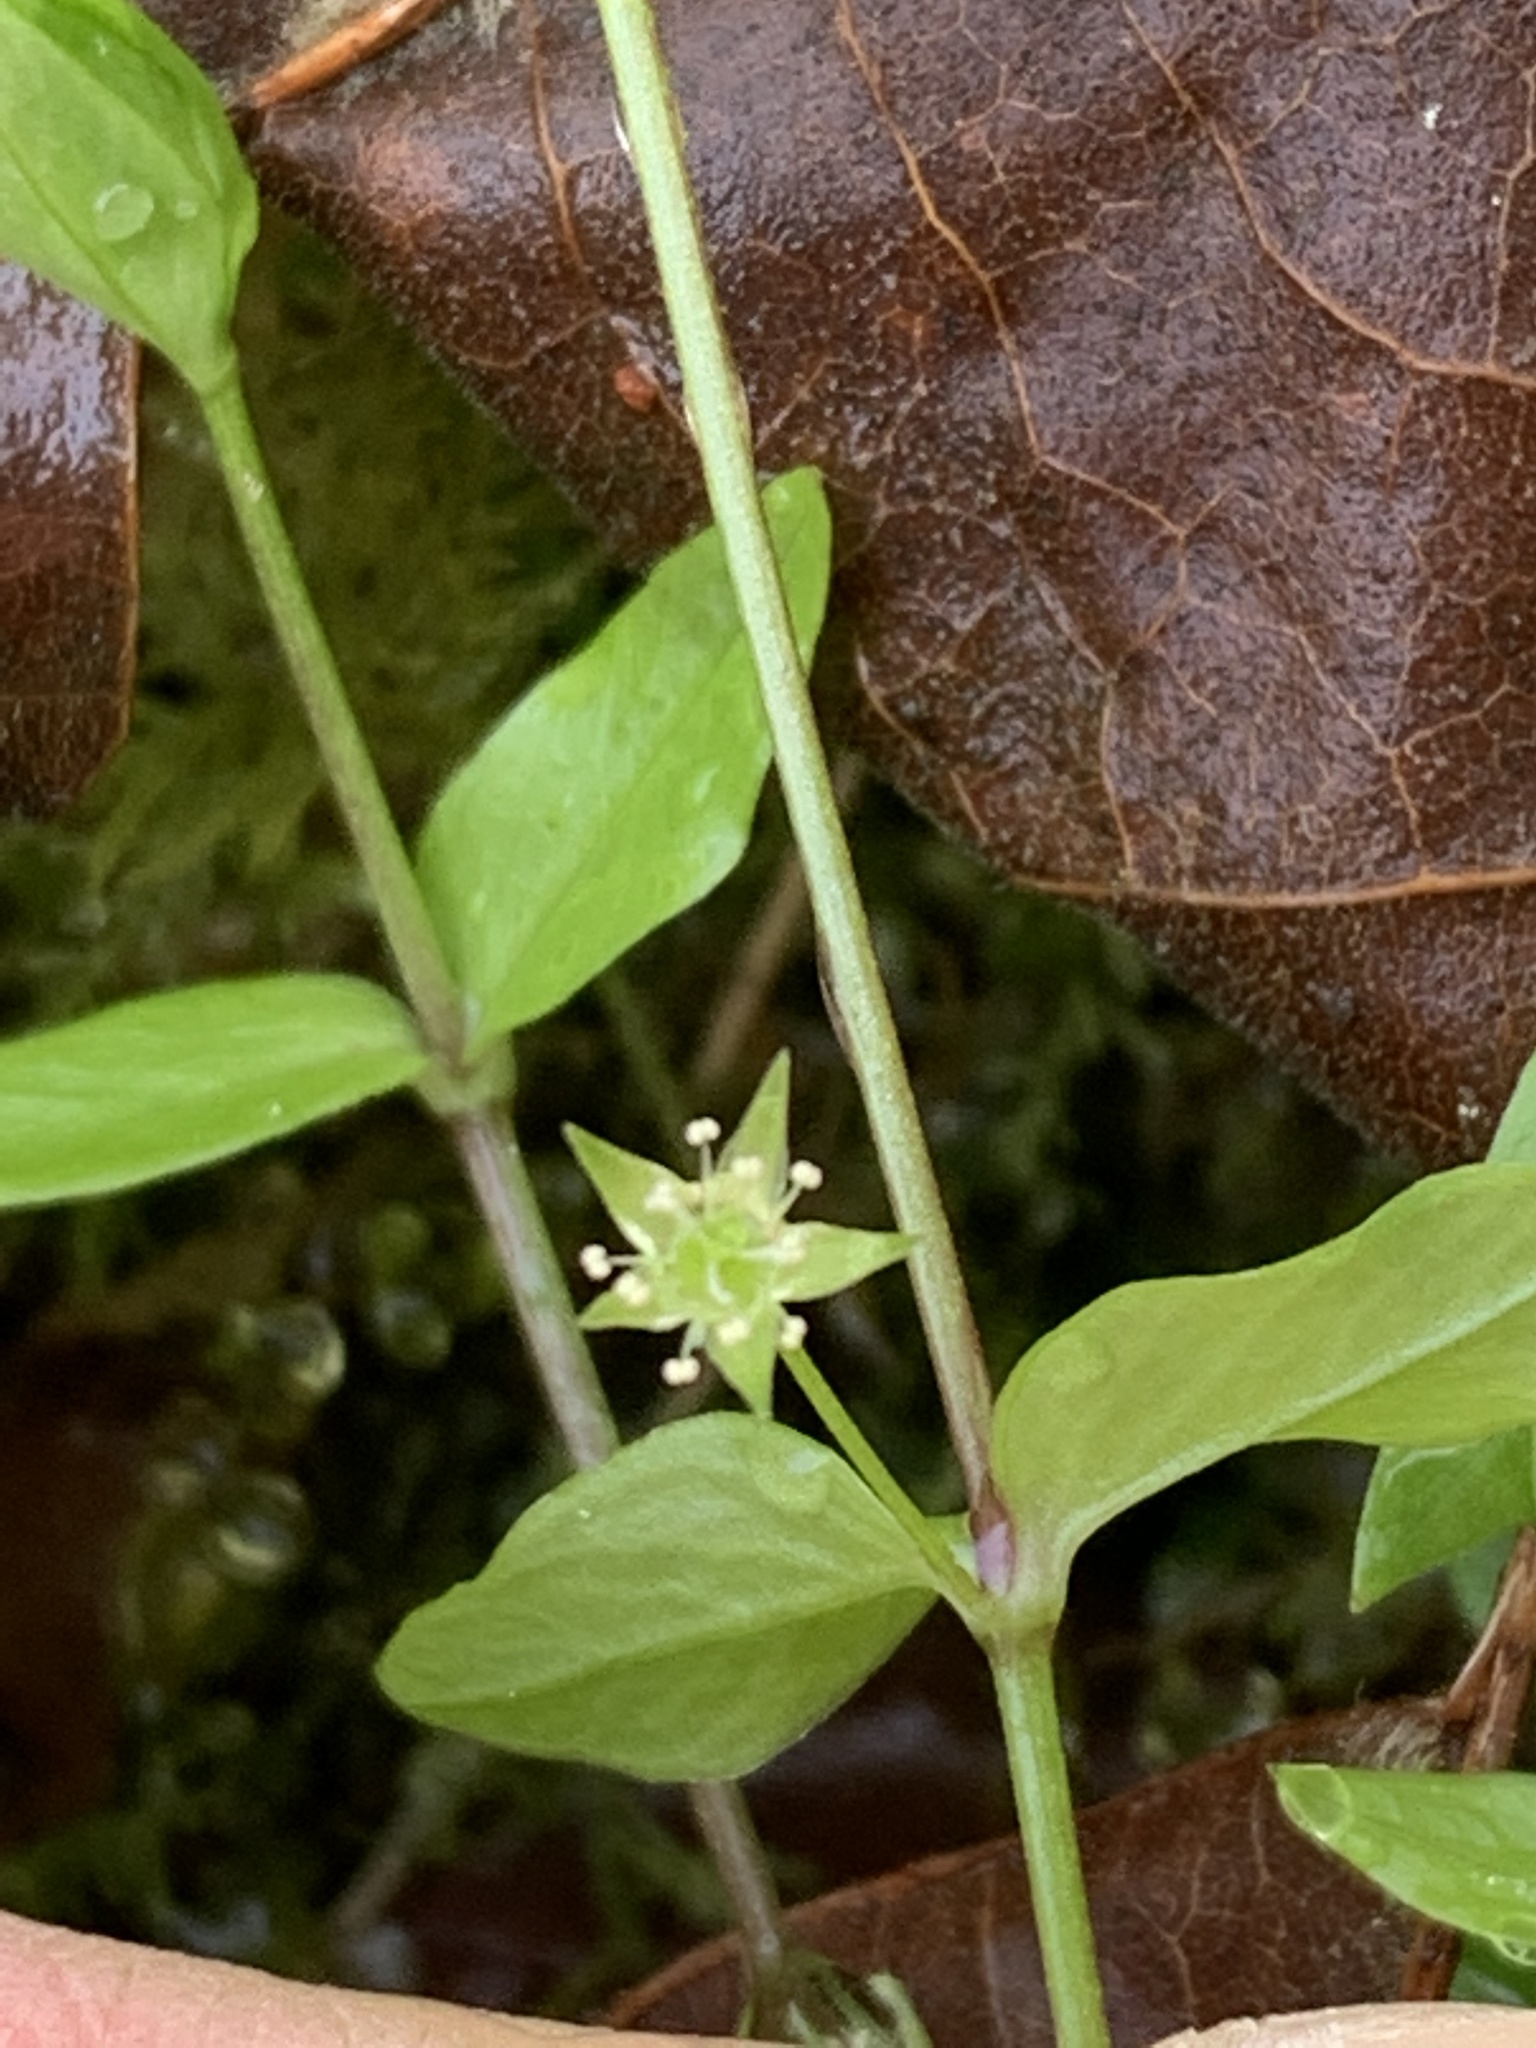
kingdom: Plantae
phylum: Tracheophyta
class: Magnoliopsida
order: Caryophyllales
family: Caryophyllaceae
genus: Stellaria
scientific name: Stellaria crispa
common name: Crimped stitchwort
